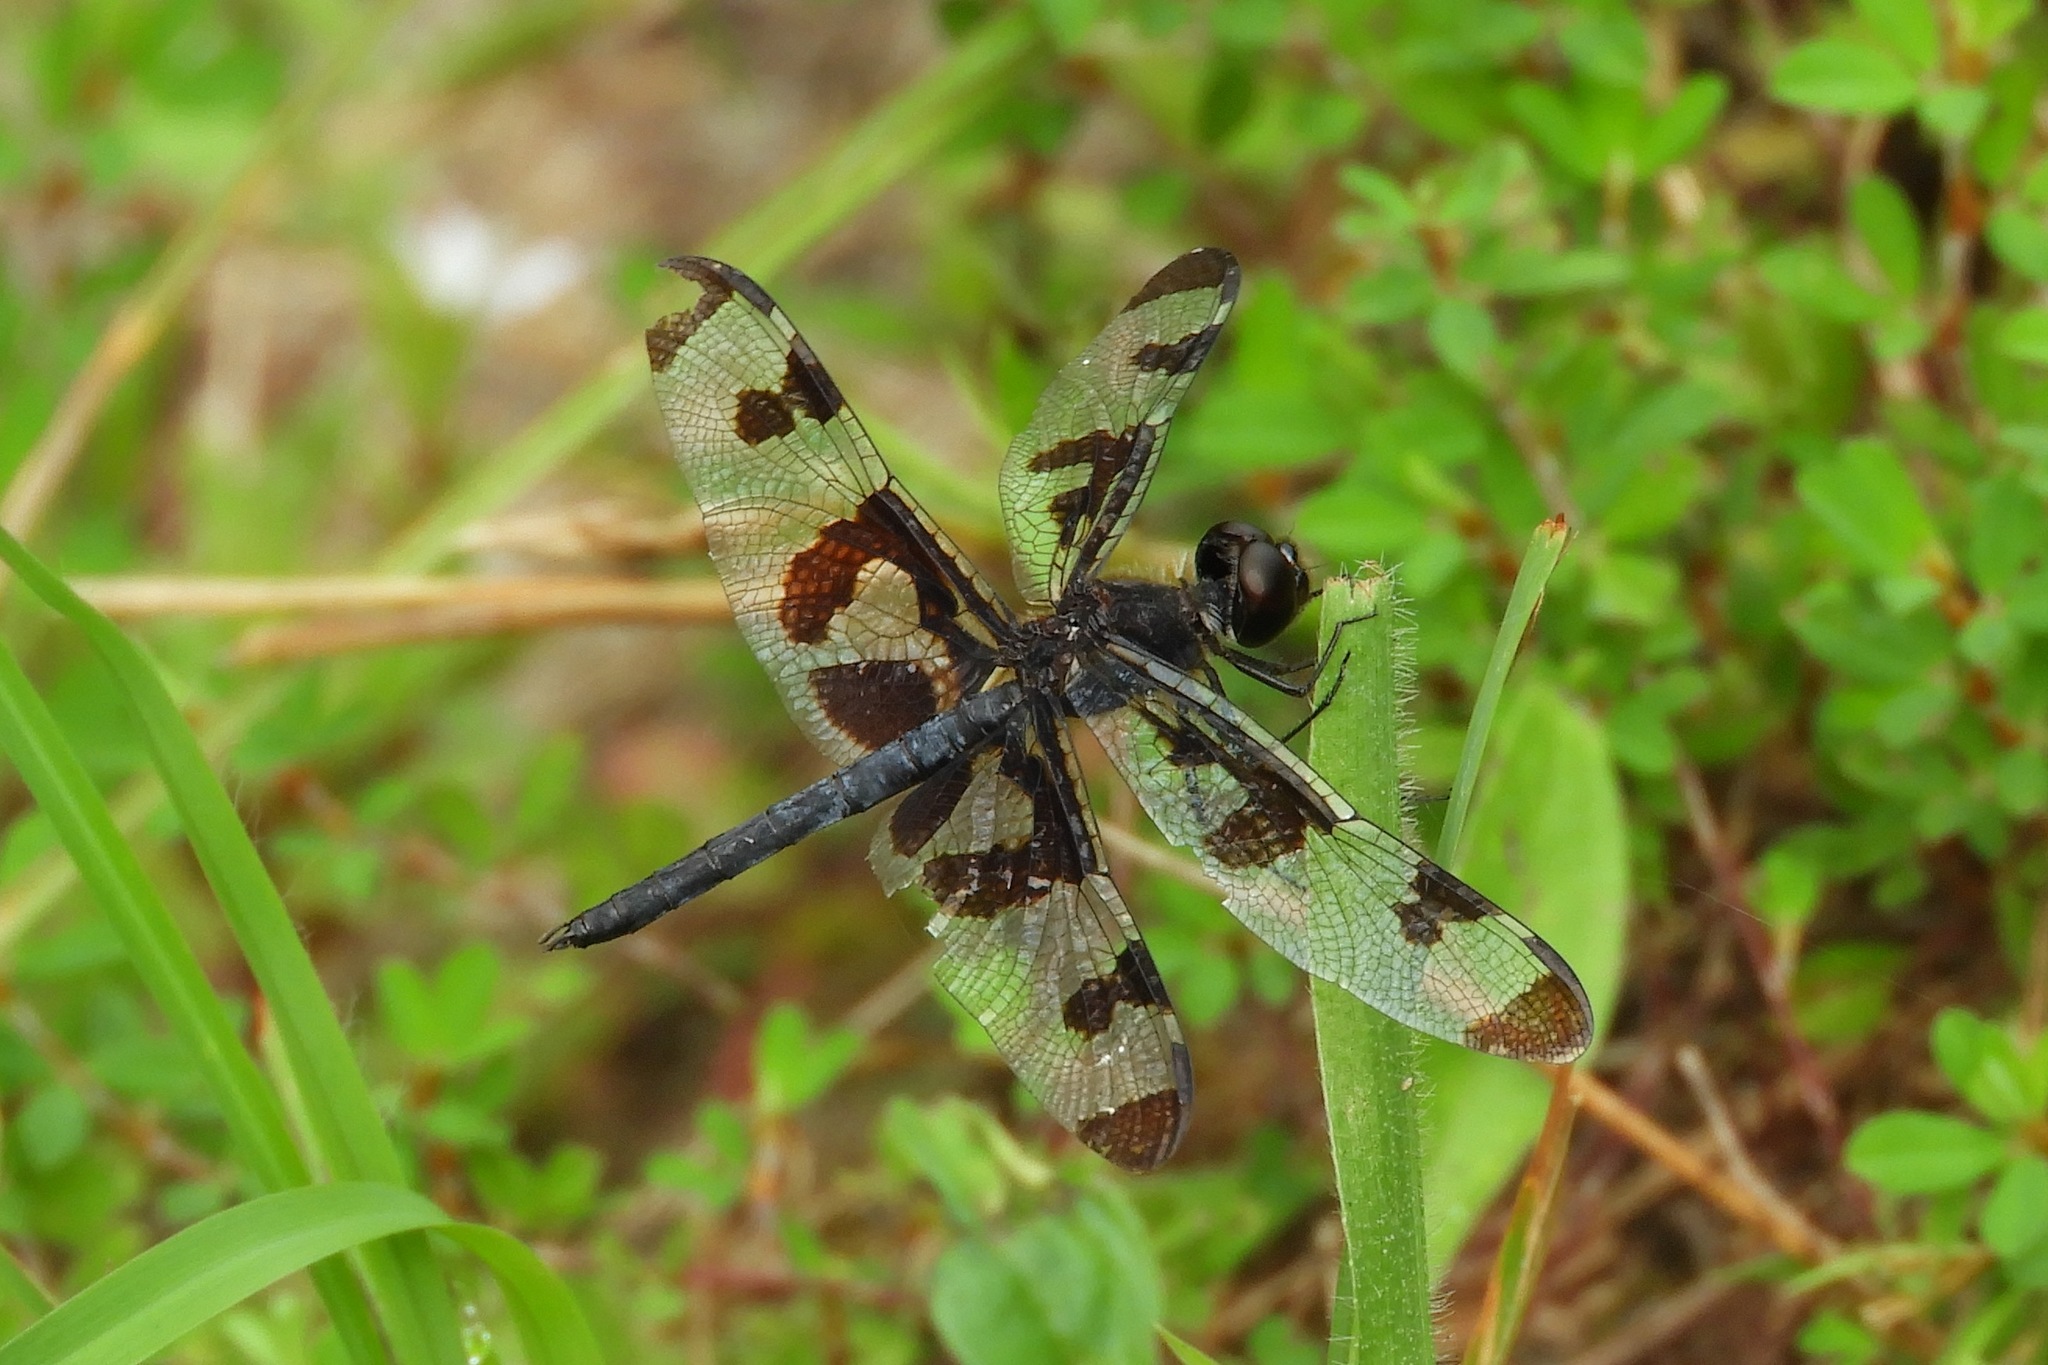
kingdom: Animalia
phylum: Arthropoda
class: Insecta
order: Odonata
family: Libellulidae
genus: Celithemis
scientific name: Celithemis fasciata
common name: Banded pennant
